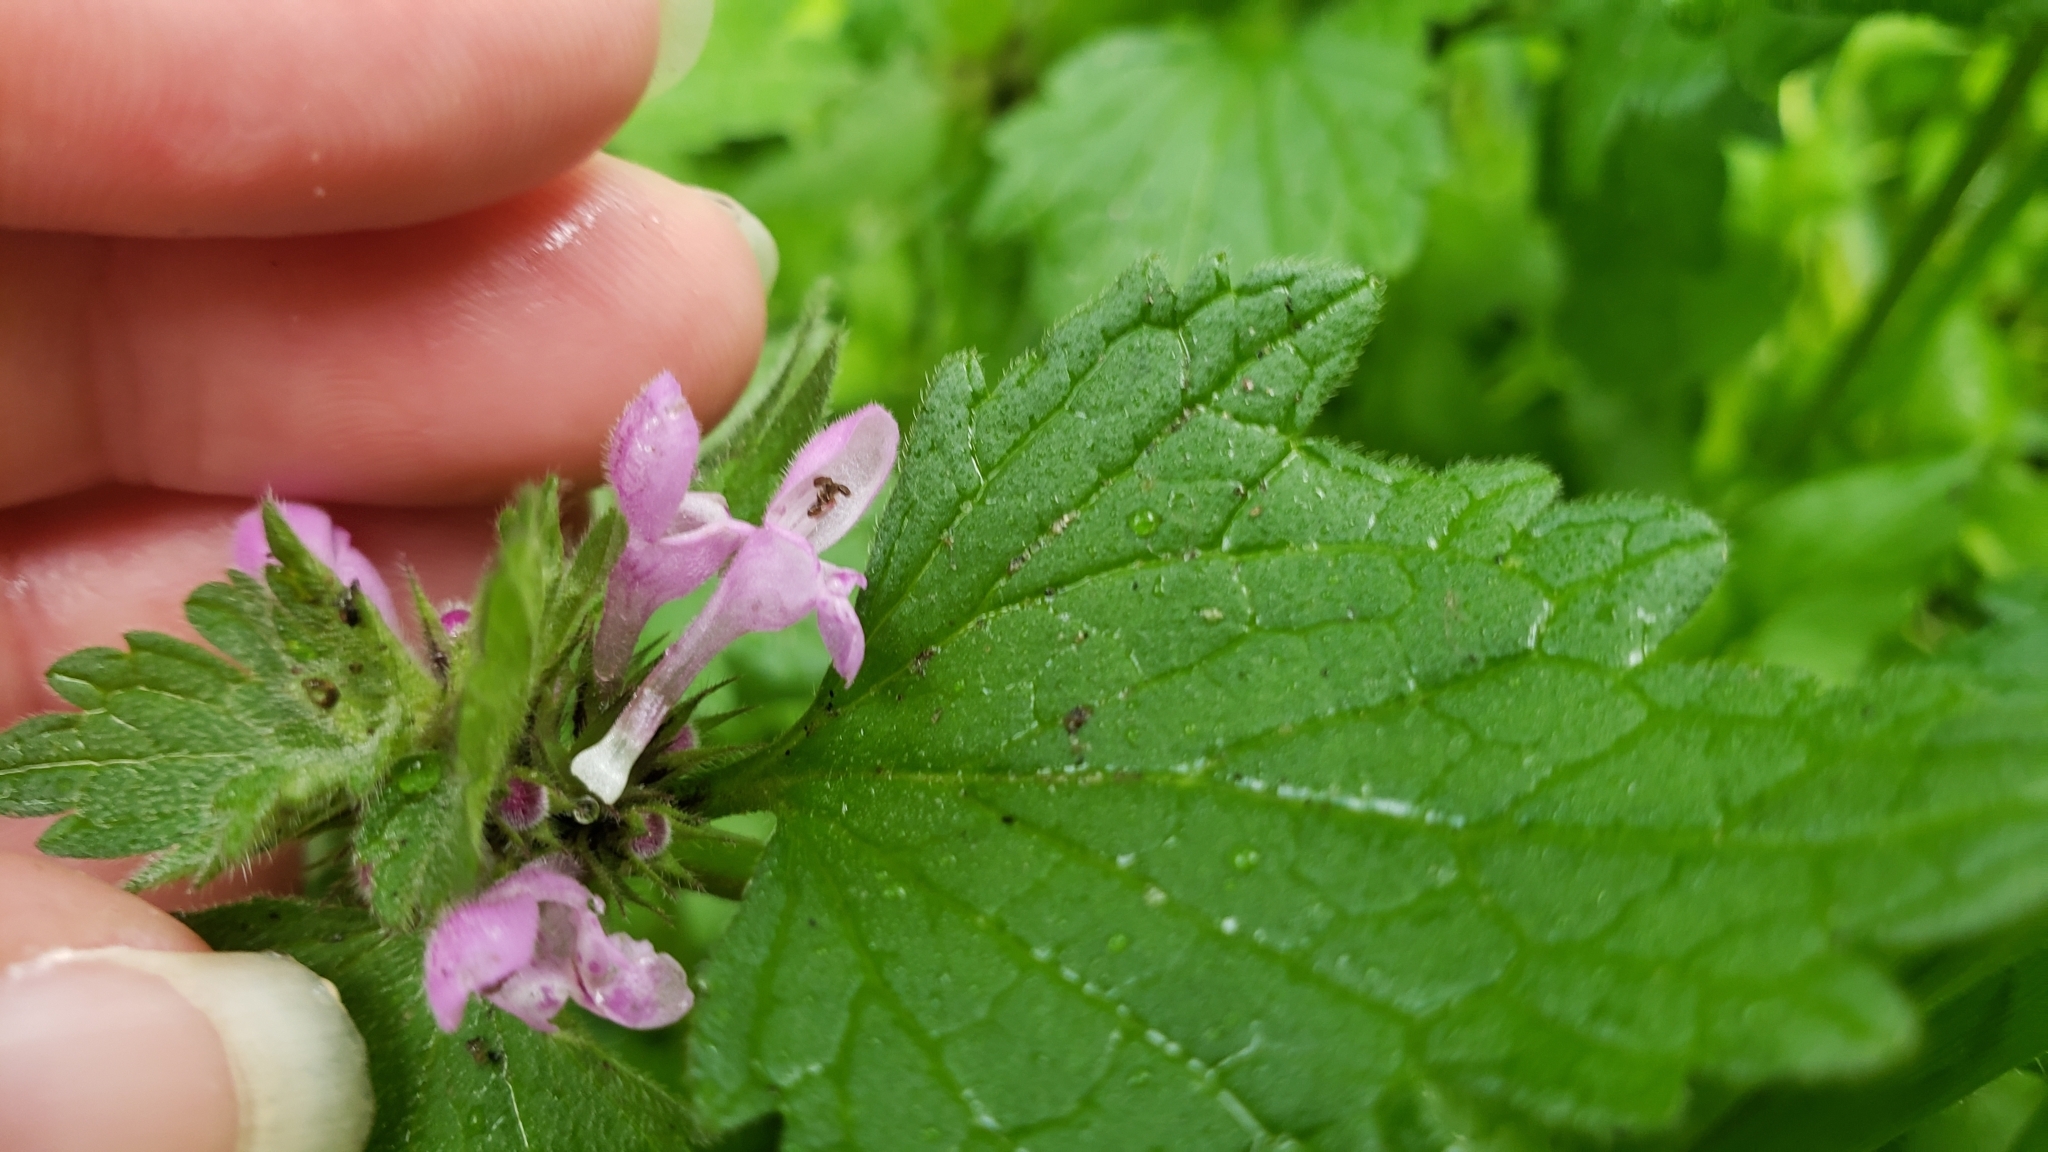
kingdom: Plantae
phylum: Tracheophyta
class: Magnoliopsida
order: Lamiales
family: Lamiaceae
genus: Lamium
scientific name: Lamium hybridum
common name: Cut-leaved dead-nettle
